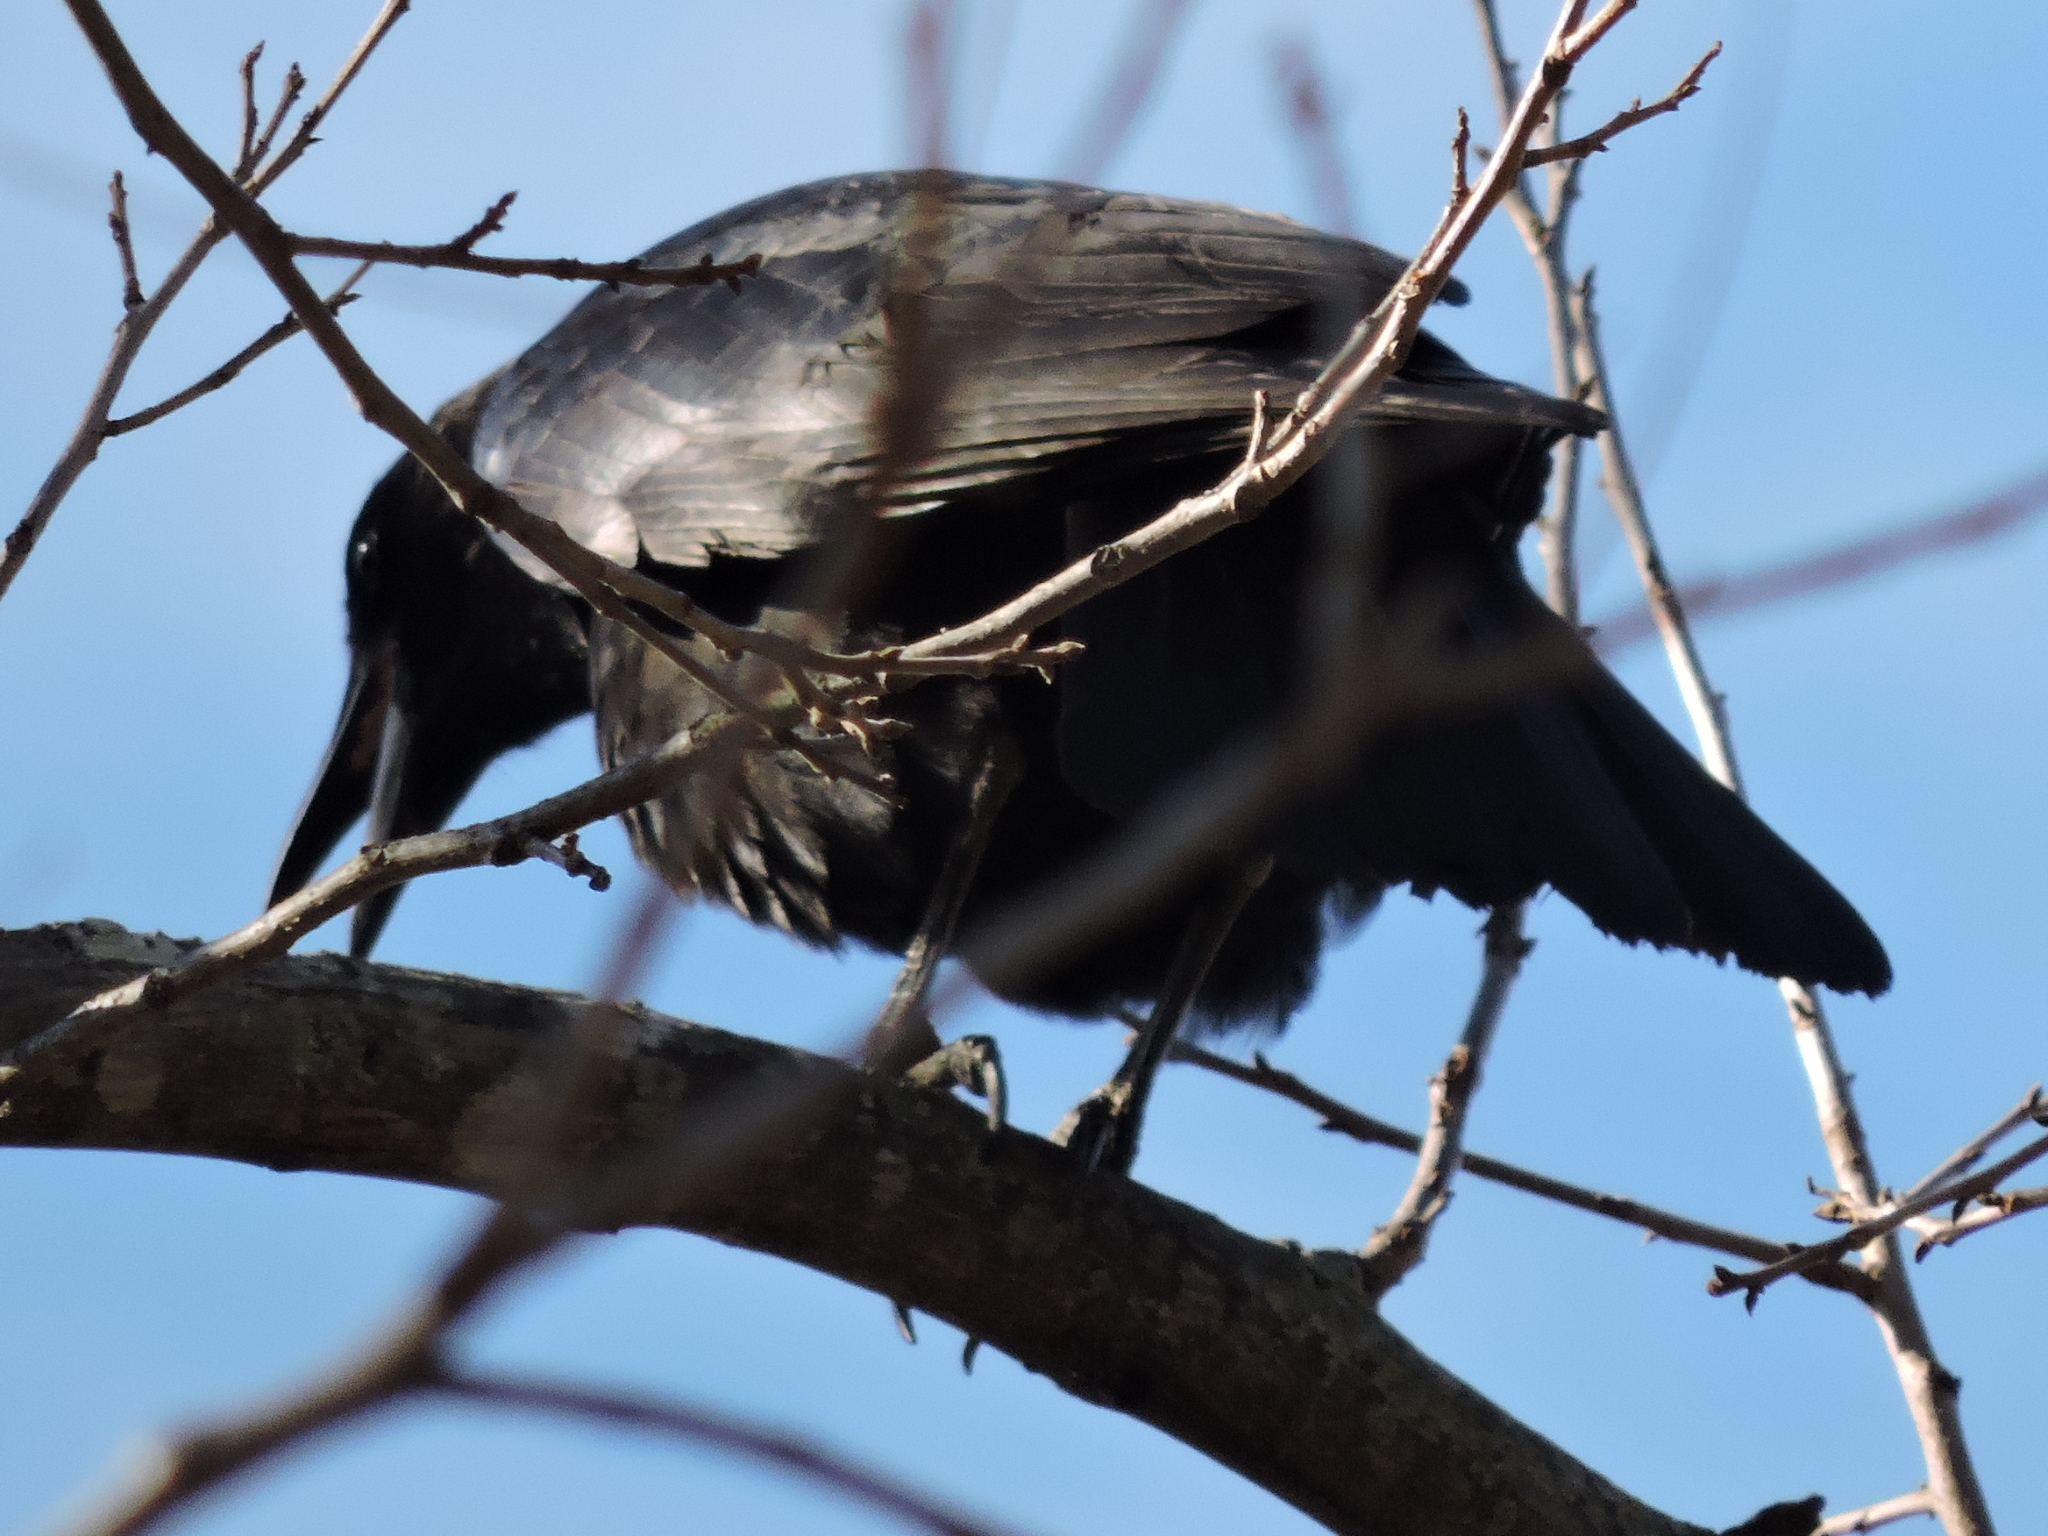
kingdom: Animalia
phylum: Chordata
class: Aves
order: Passeriformes
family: Corvidae
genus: Corvus
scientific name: Corvus brachyrhynchos
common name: American crow
